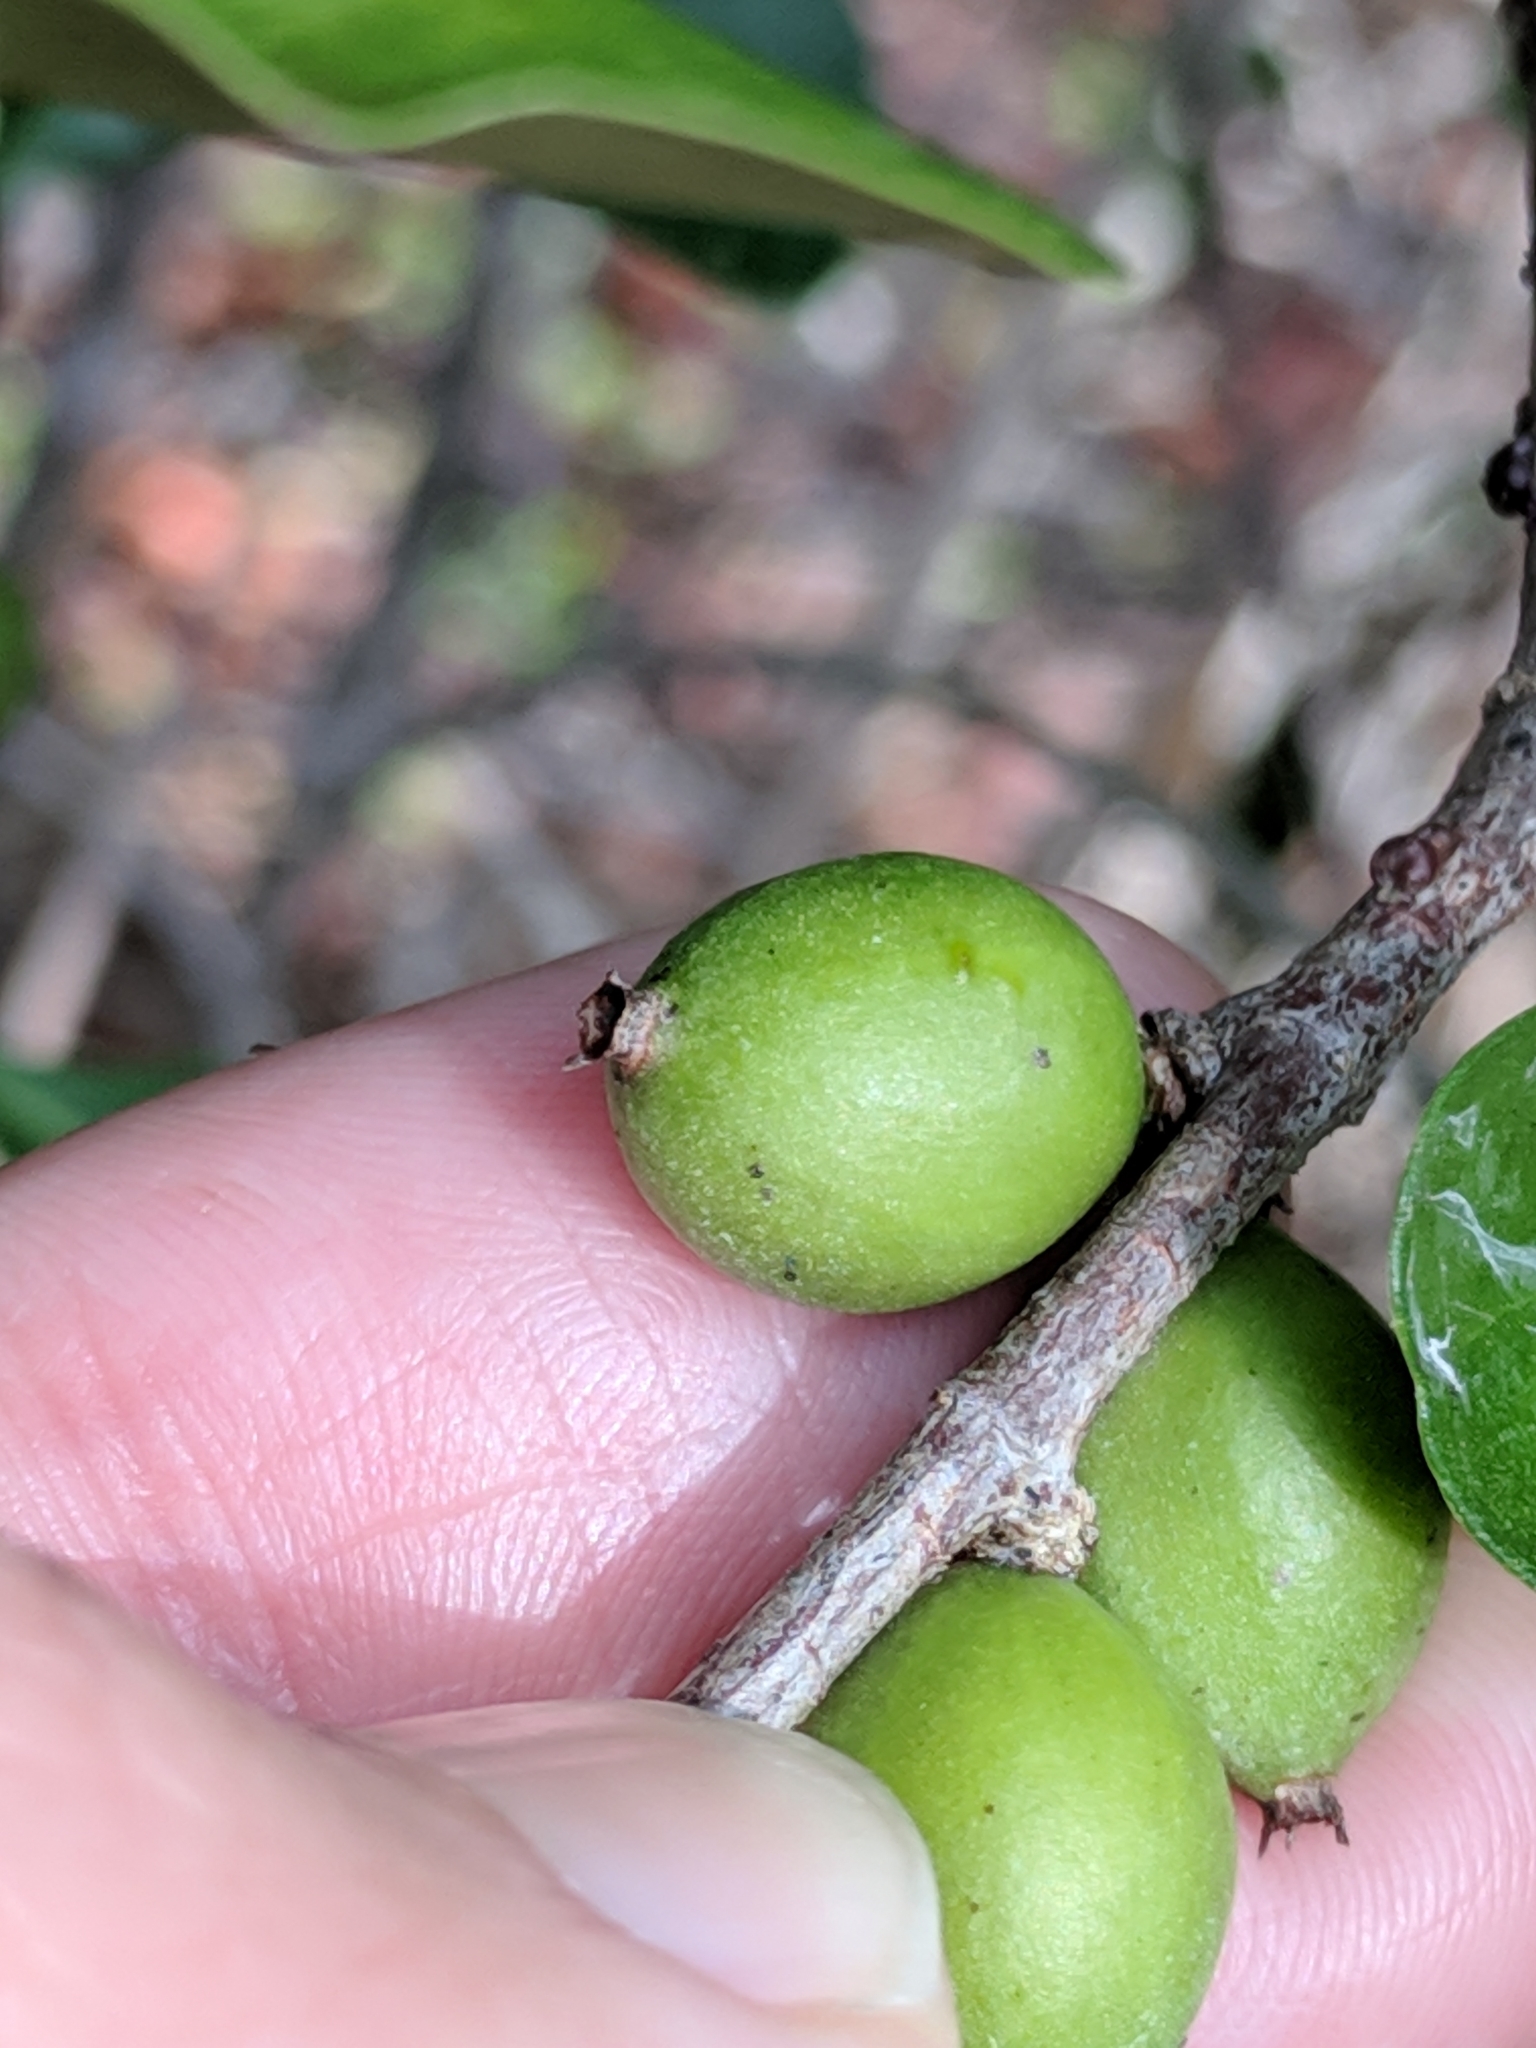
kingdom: Plantae
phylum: Tracheophyta
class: Magnoliopsida
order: Gentianales
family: Rubiaceae
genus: Randia
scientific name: Randia aculeata
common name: Inkberry
